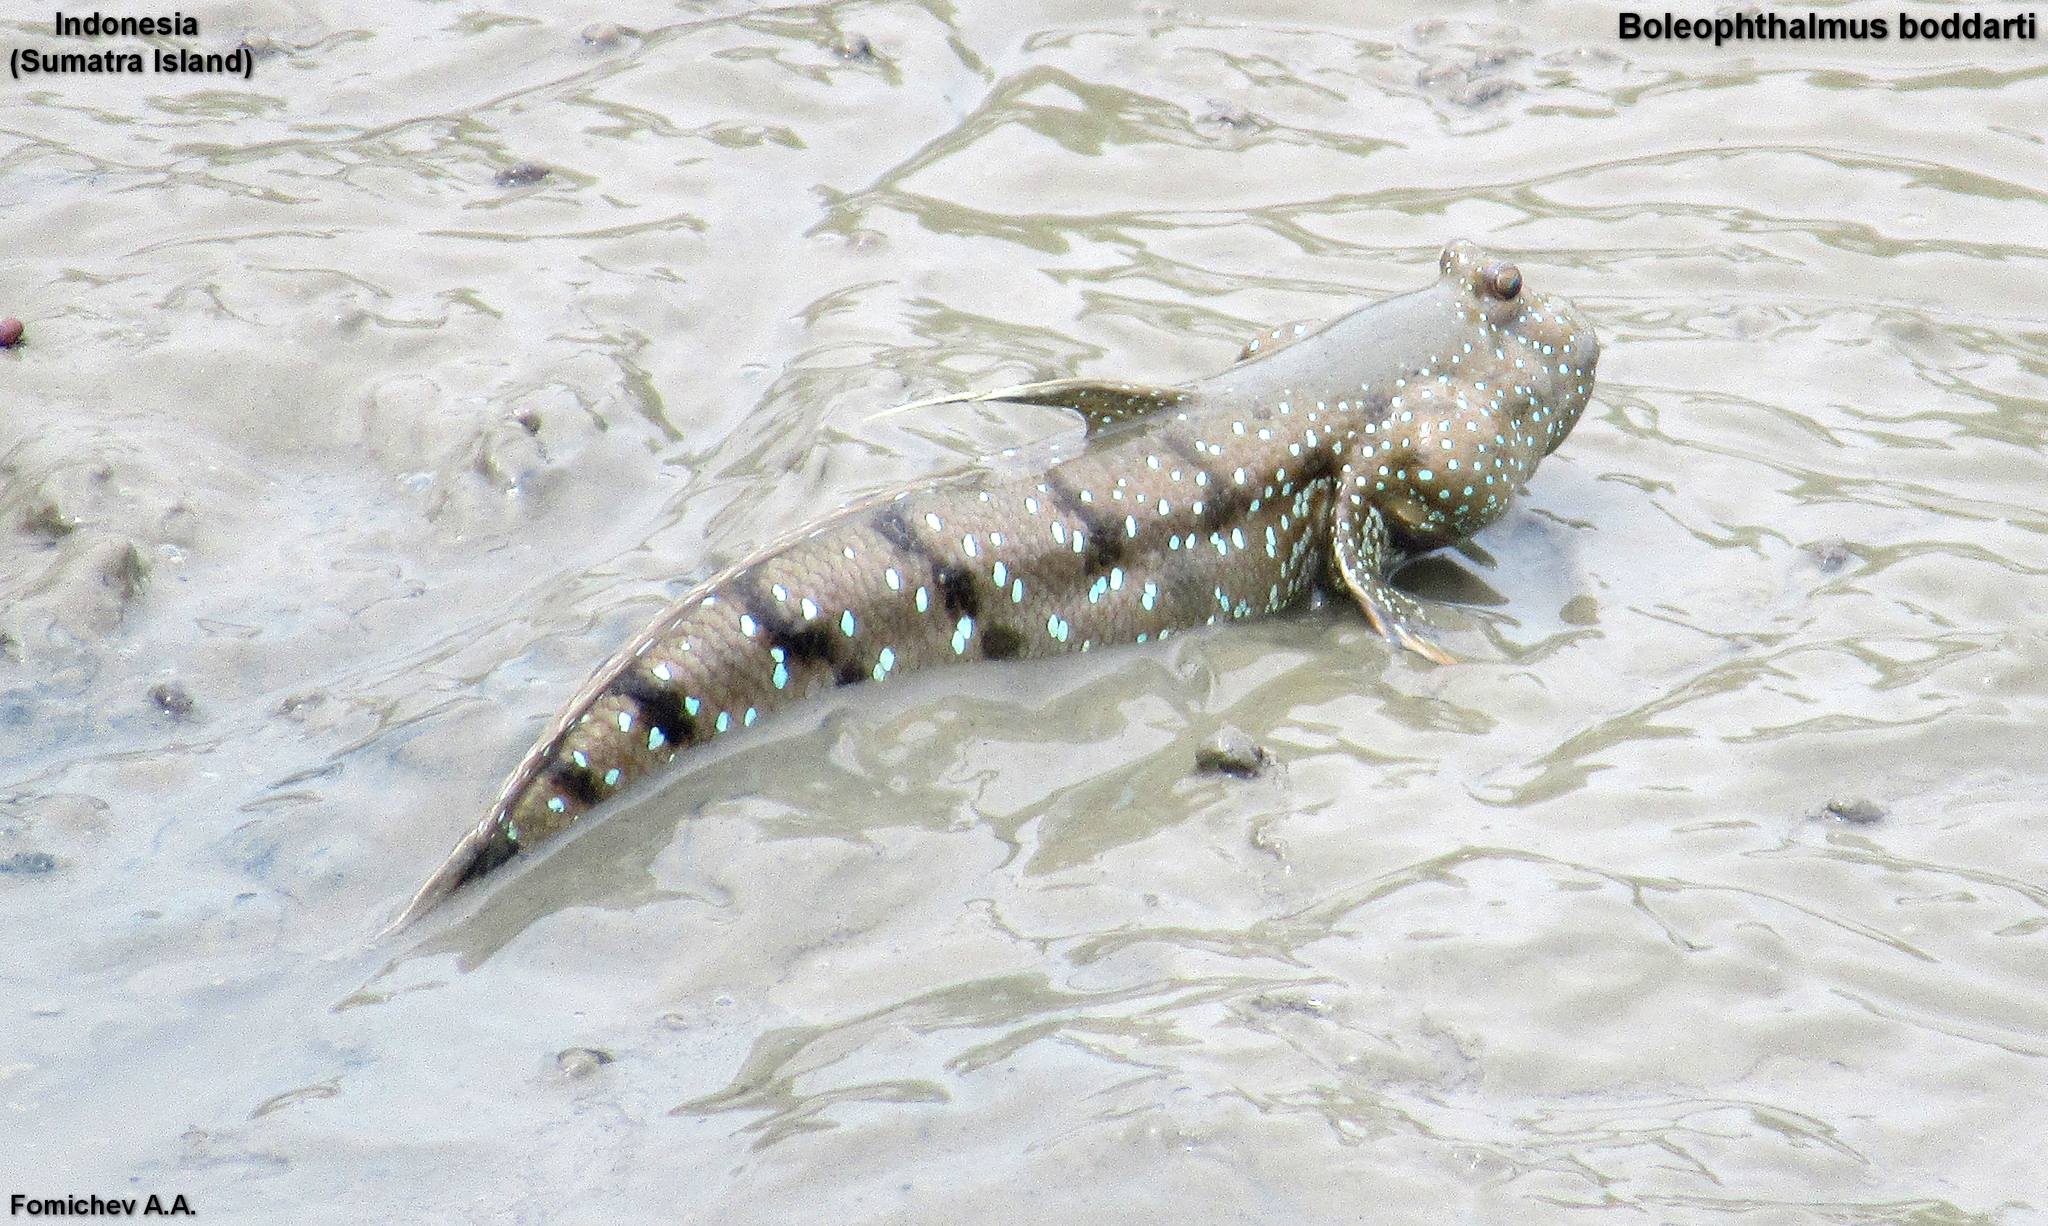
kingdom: Animalia
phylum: Chordata
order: Perciformes
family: Gobiidae
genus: Boleophthalmus
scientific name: Boleophthalmus boddarti
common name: Boddart's goggle-eyed goby
